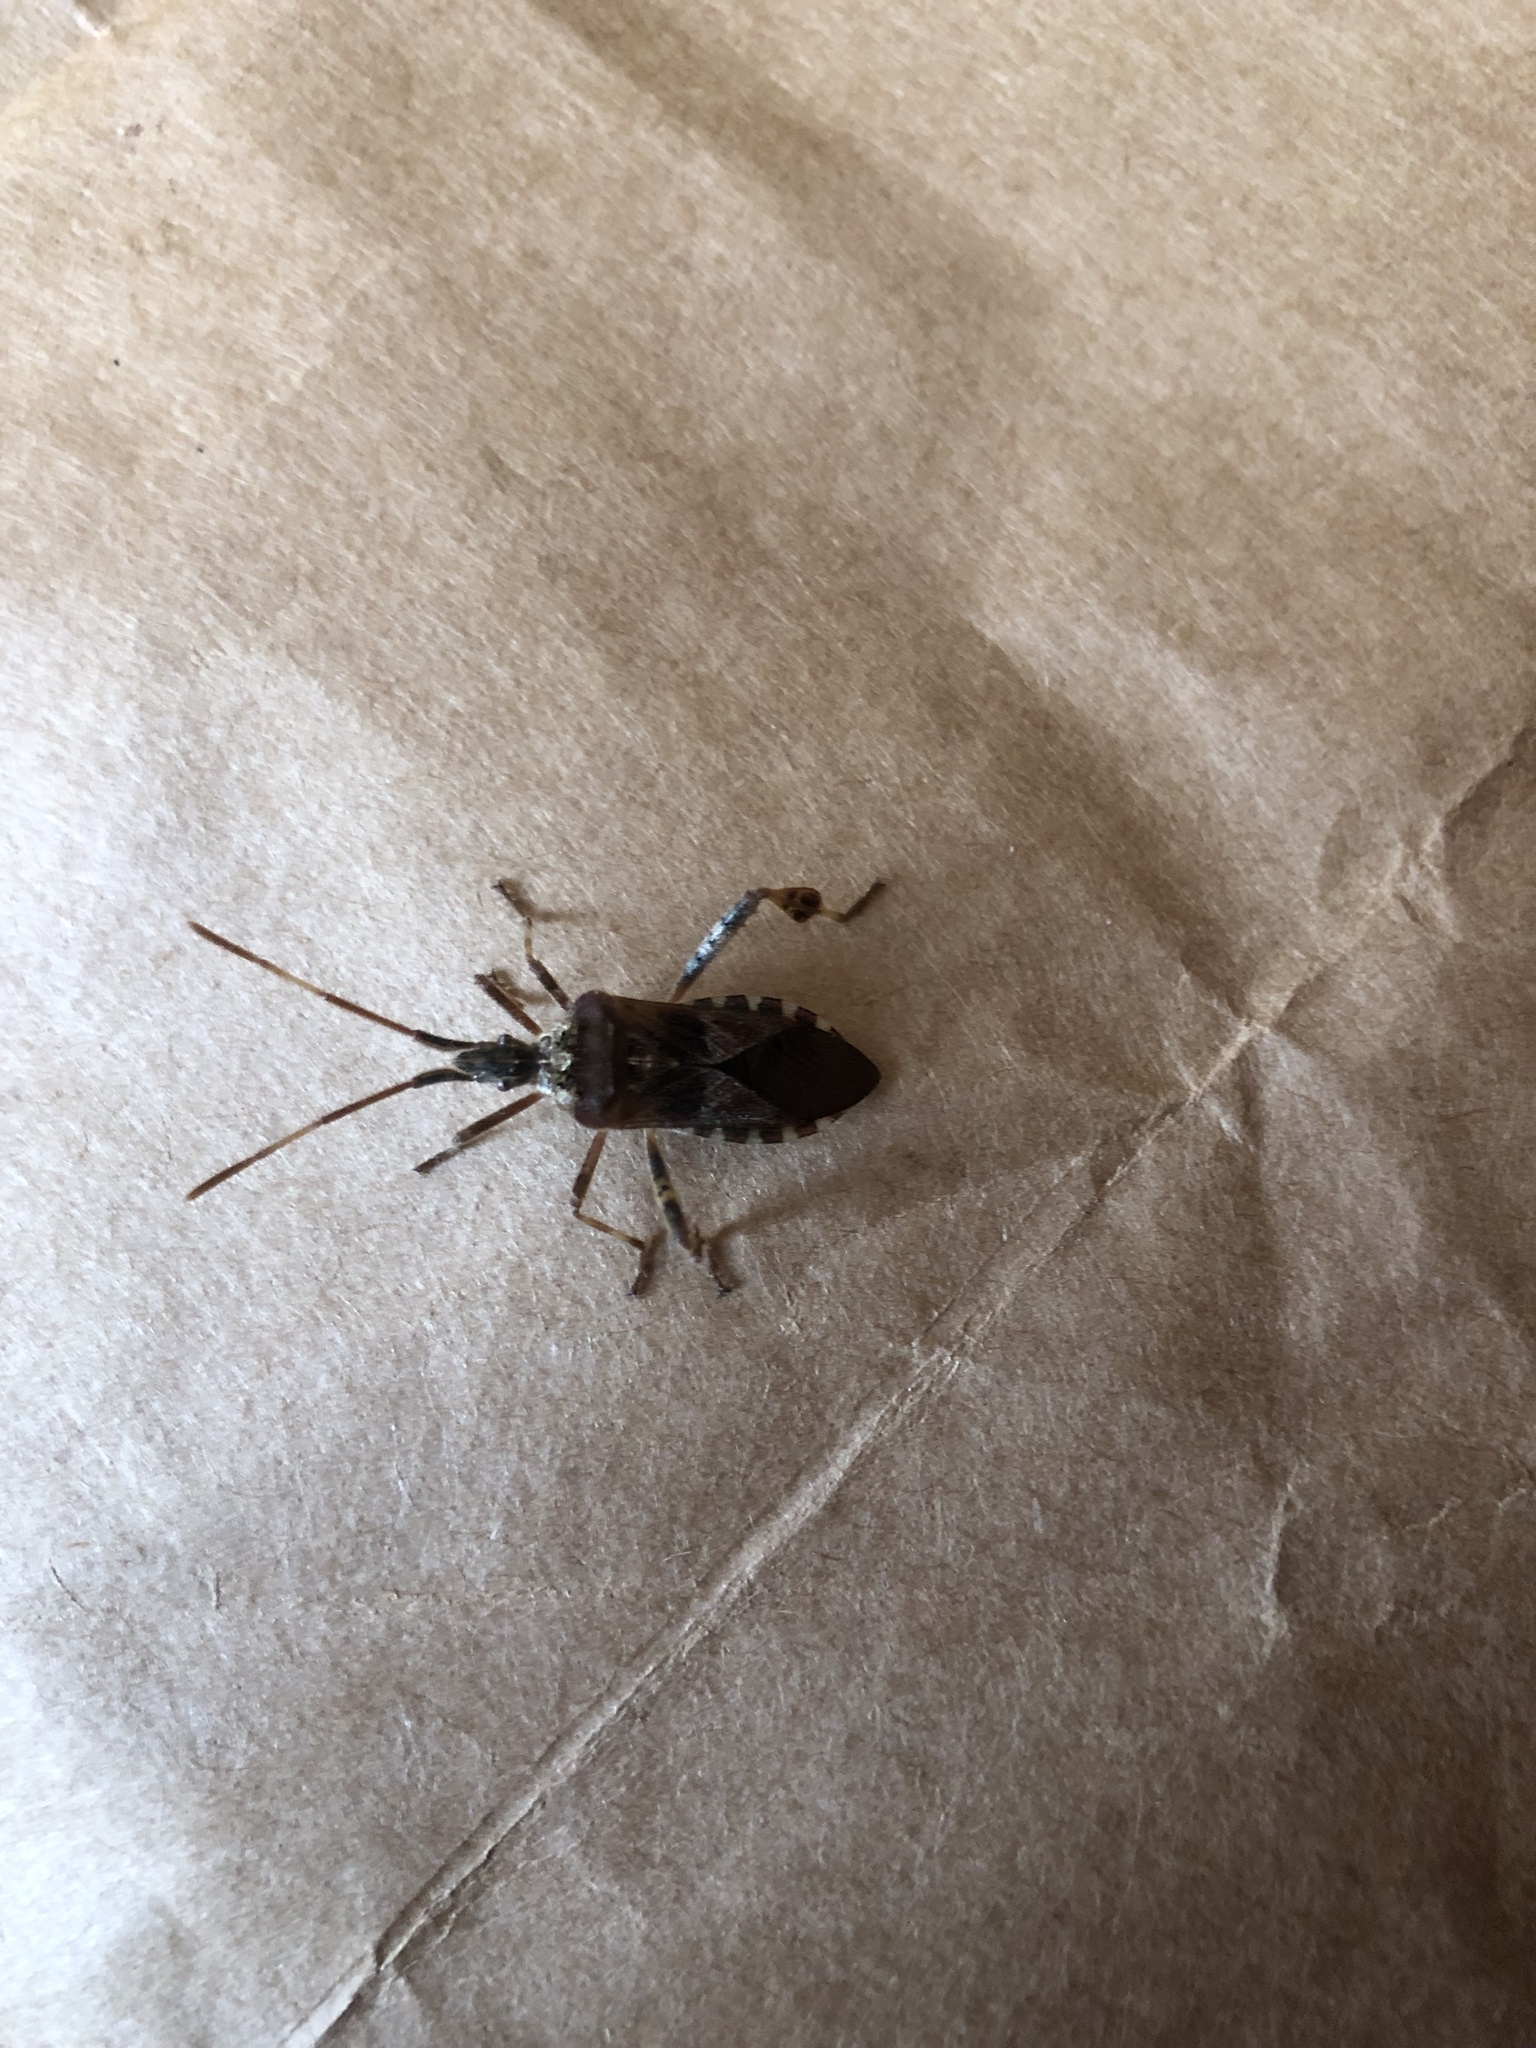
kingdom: Animalia
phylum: Arthropoda
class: Insecta
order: Hemiptera
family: Coreidae
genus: Leptoglossus
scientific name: Leptoglossus occidentalis
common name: Western conifer-seed bug
